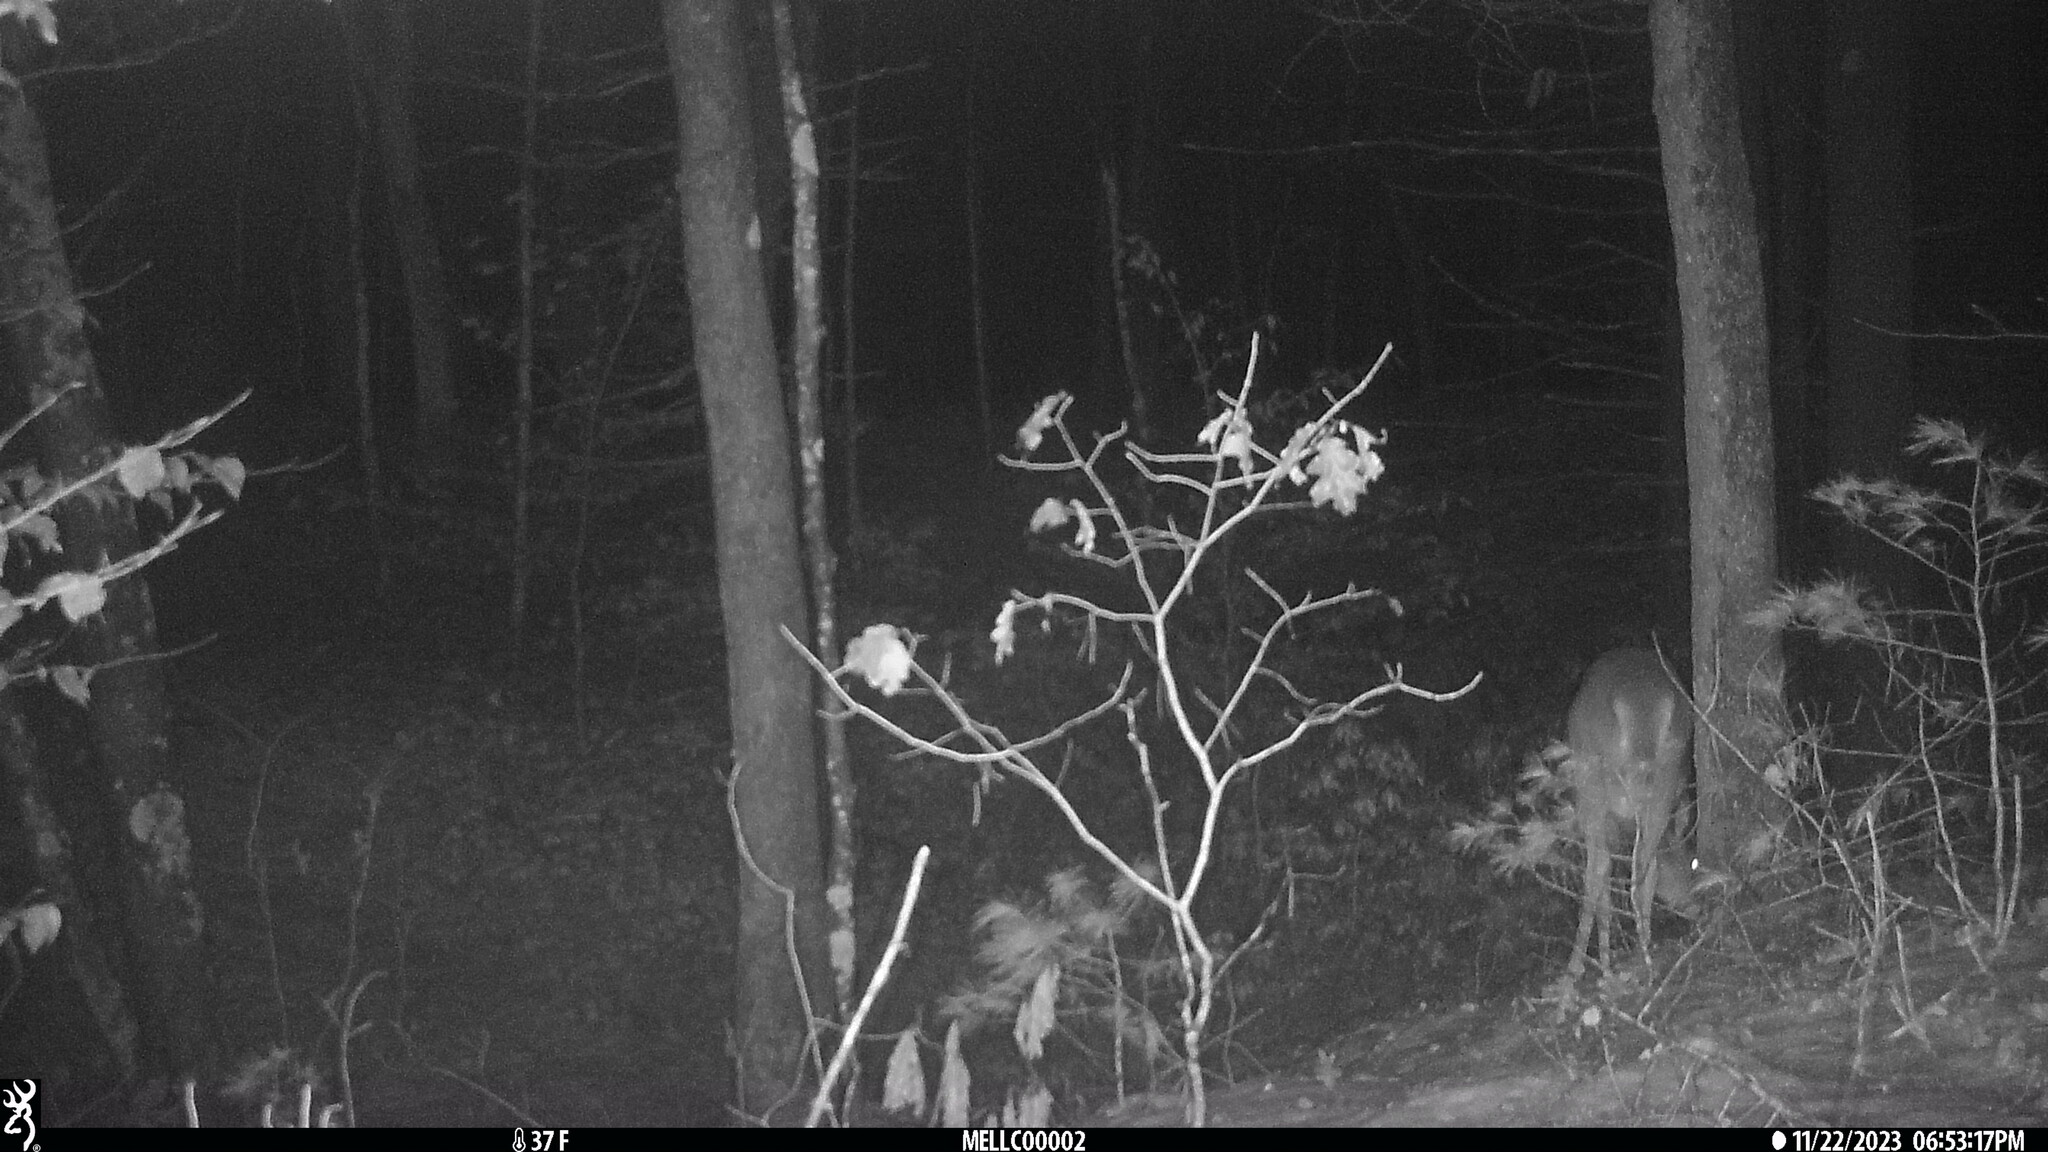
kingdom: Animalia
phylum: Chordata
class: Mammalia
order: Artiodactyla
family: Cervidae
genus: Odocoileus
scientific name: Odocoileus virginianus
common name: White-tailed deer
